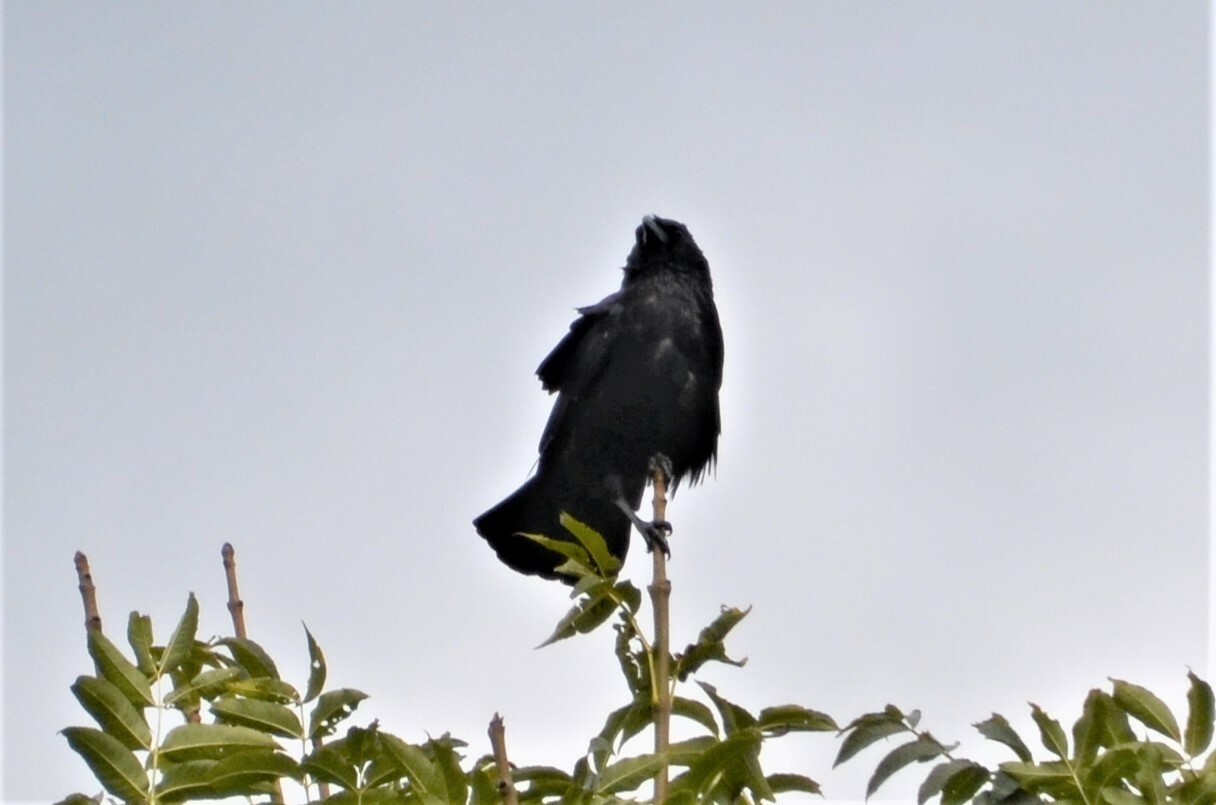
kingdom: Animalia
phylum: Chordata
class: Aves
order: Passeriformes
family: Corvidae
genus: Corvus
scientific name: Corvus
